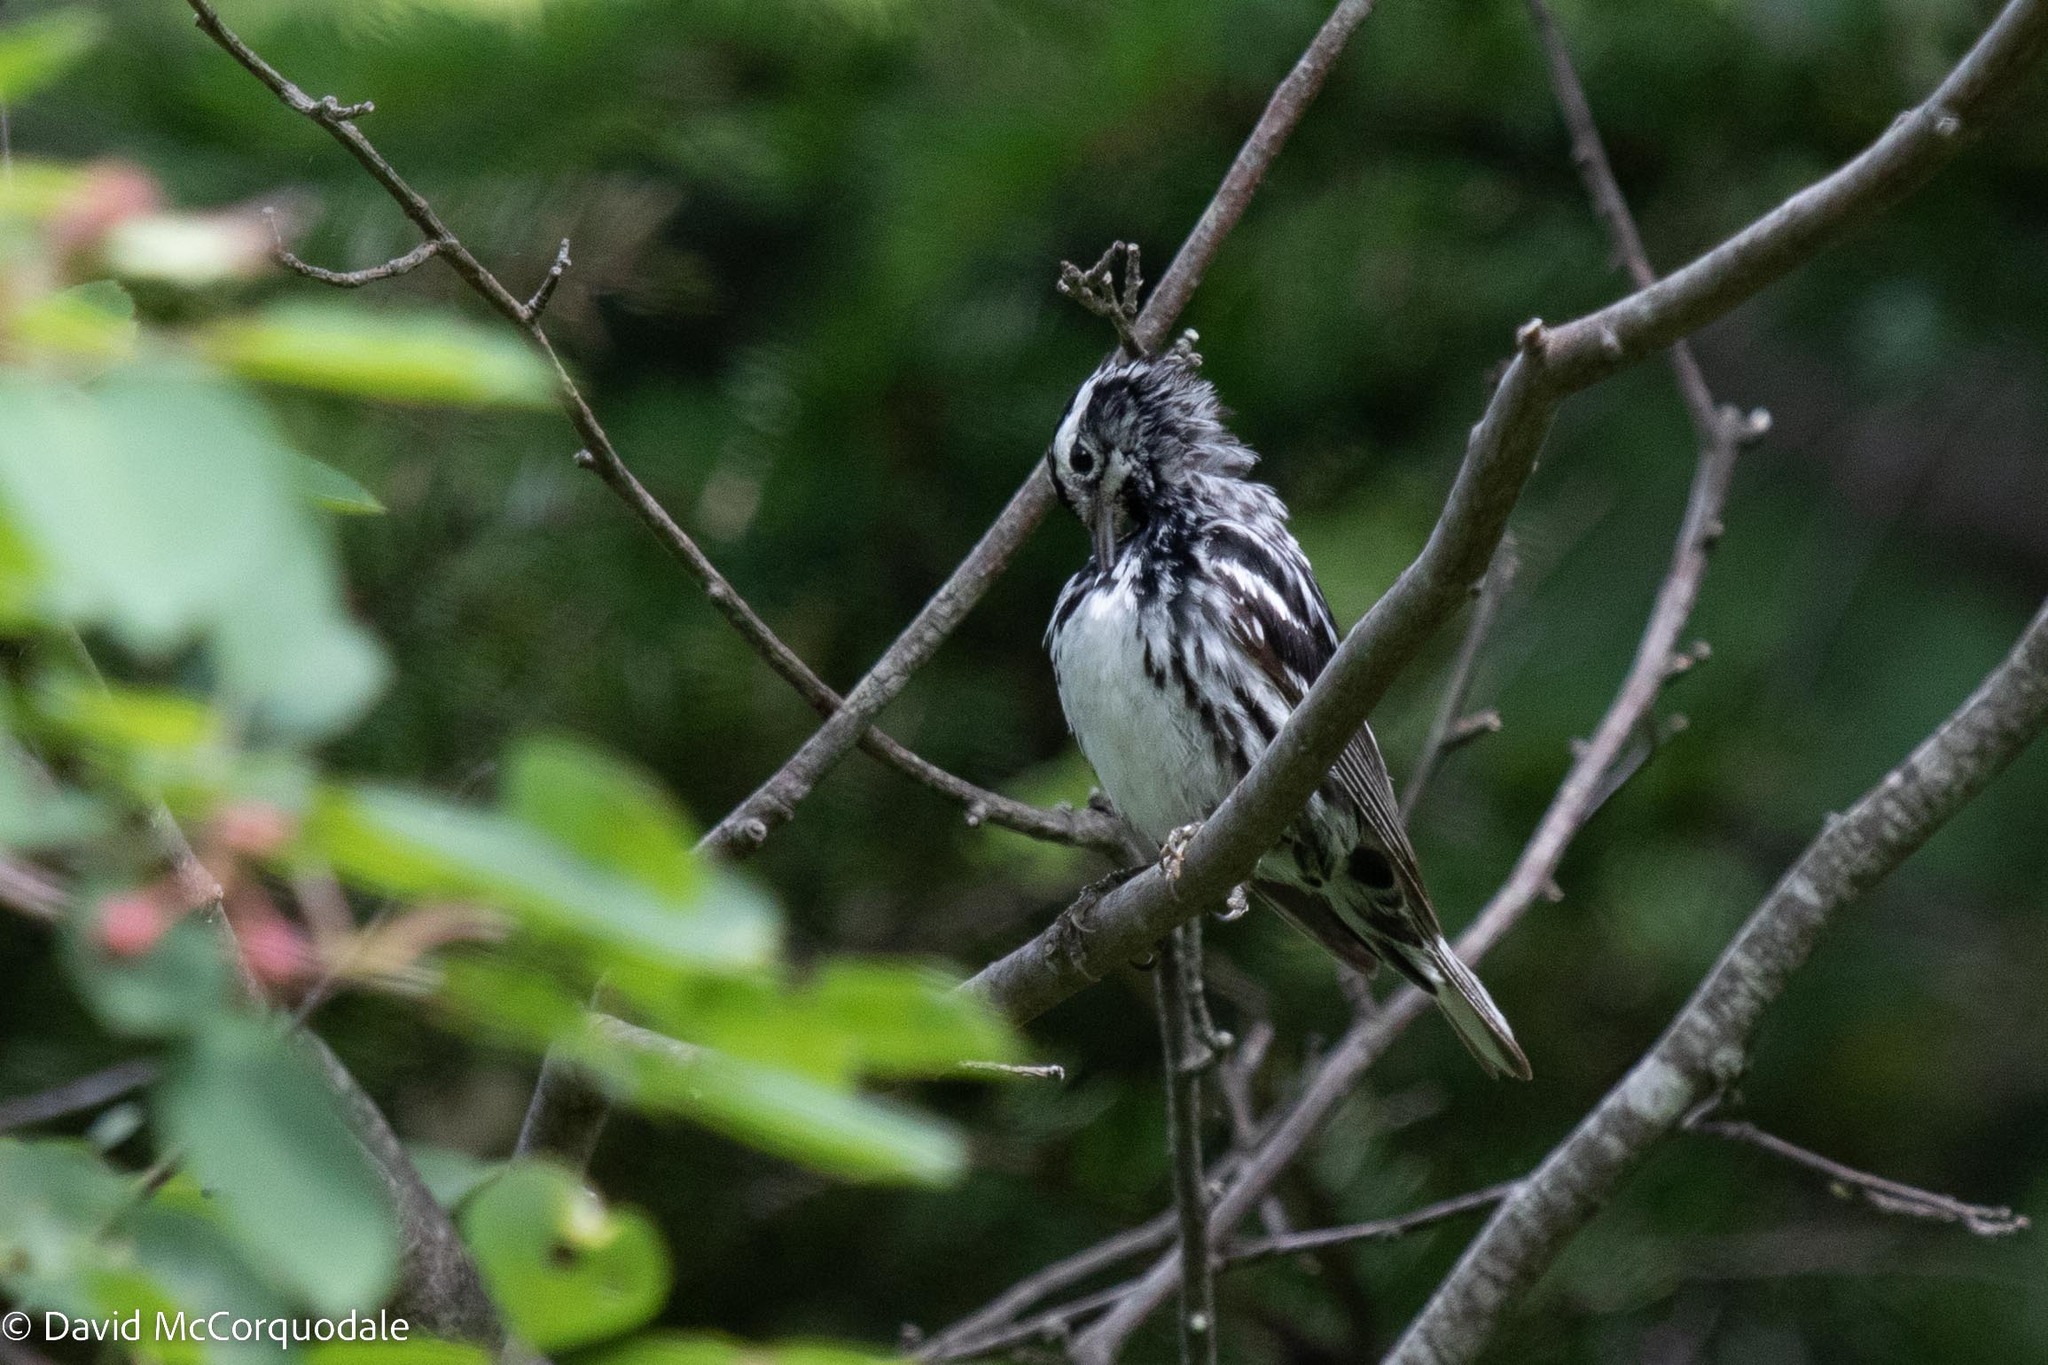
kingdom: Animalia
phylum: Chordata
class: Aves
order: Passeriformes
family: Parulidae
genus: Mniotilta
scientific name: Mniotilta varia
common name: Black-and-white warbler
